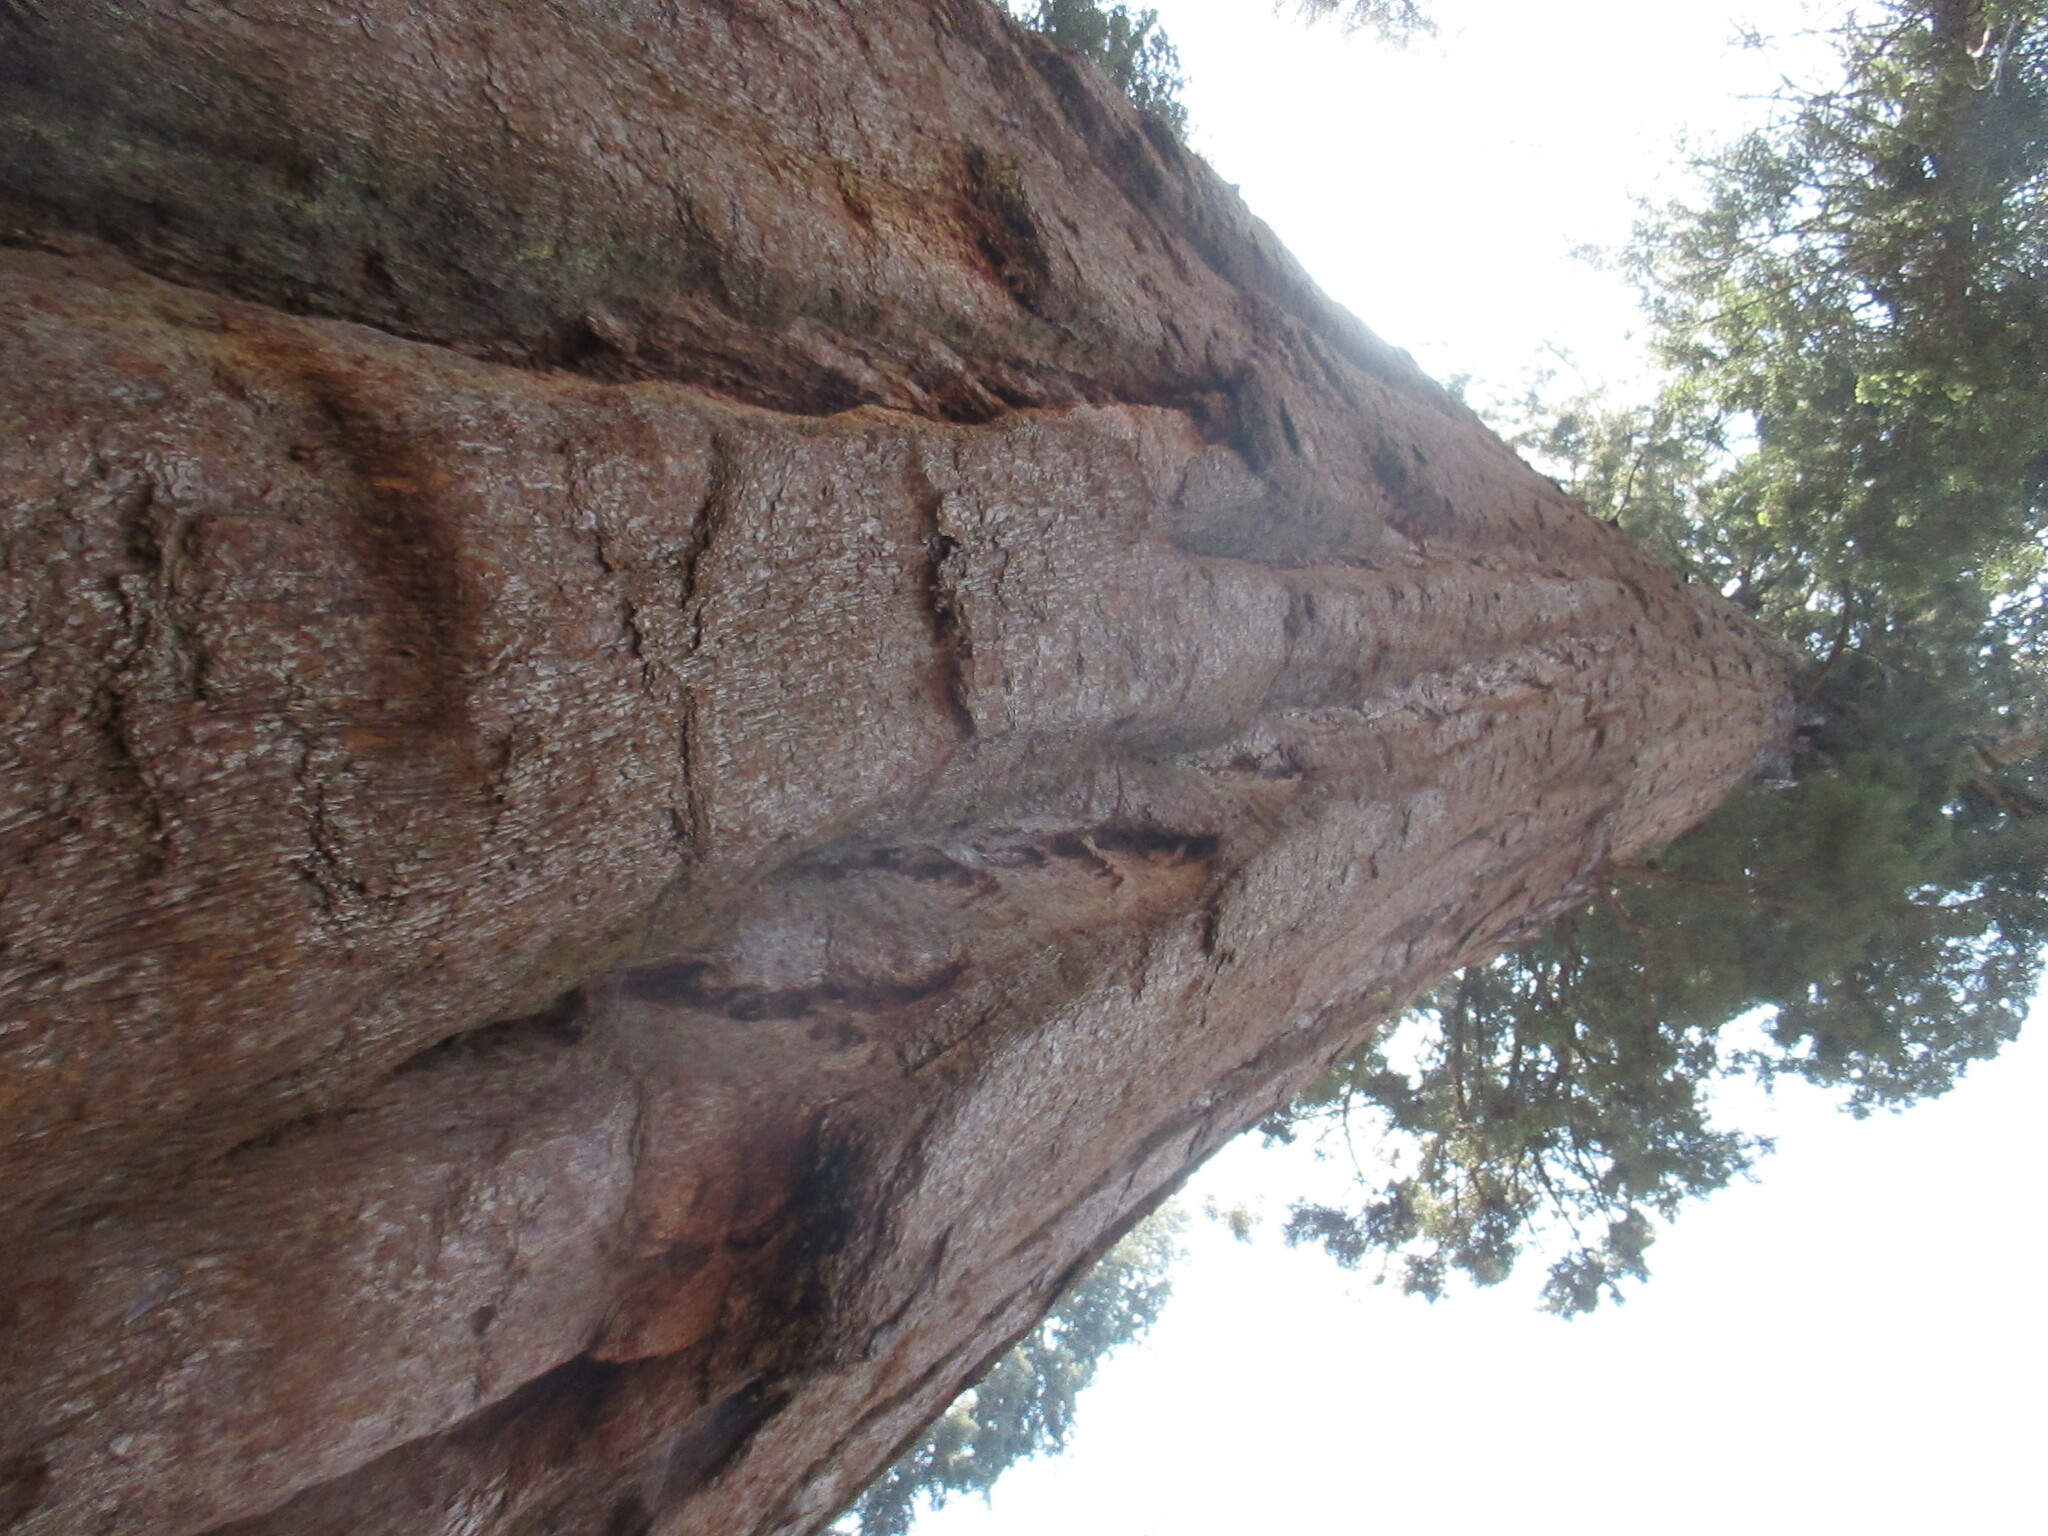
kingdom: Plantae
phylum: Tracheophyta
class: Pinopsida
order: Pinales
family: Cupressaceae
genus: Sequoiadendron
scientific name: Sequoiadendron giganteum
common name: Wellingtonia
